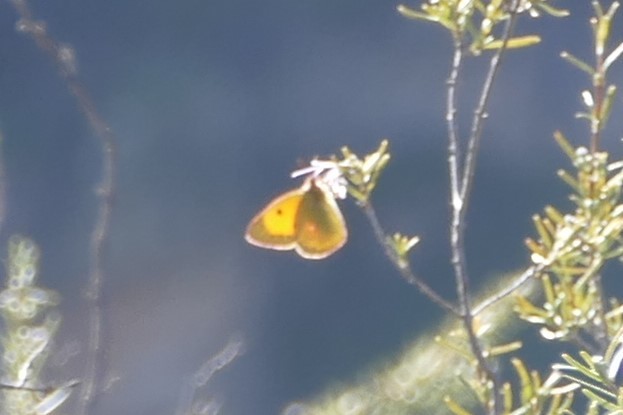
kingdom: Animalia
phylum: Arthropoda
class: Insecta
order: Lepidoptera
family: Pieridae
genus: Colias
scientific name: Colias croceus
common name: Clouded yellow
